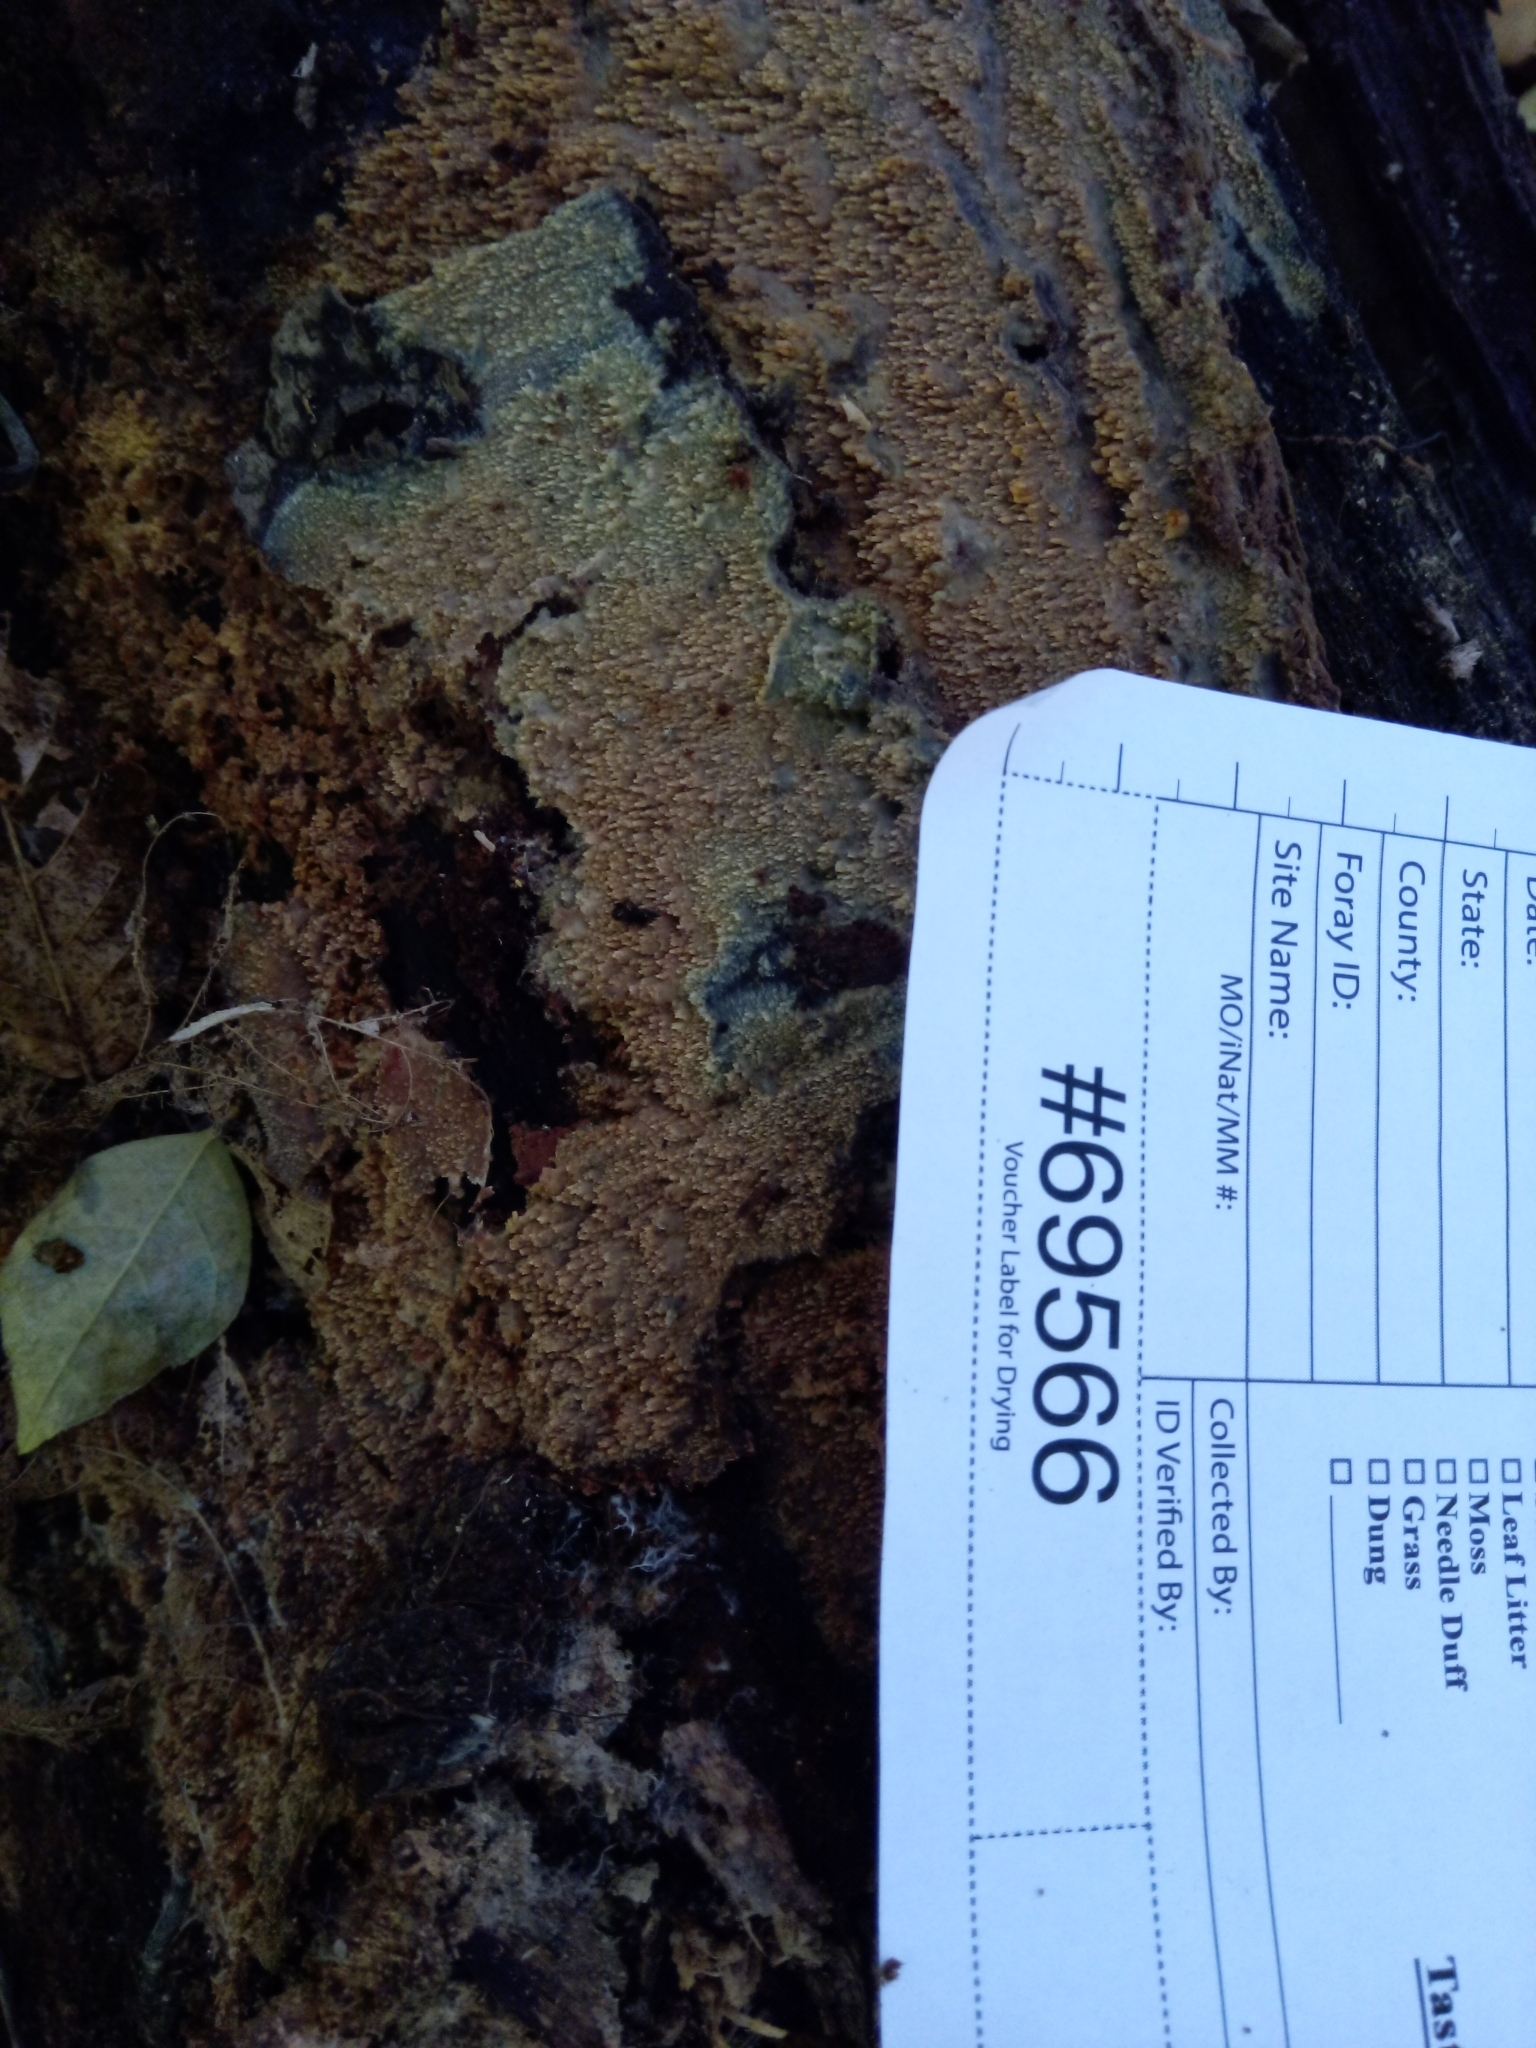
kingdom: Fungi
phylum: Basidiomycota
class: Agaricomycetes
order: Polyporales
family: Meruliaceae
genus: Mycoacia
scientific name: Mycoacia livida
